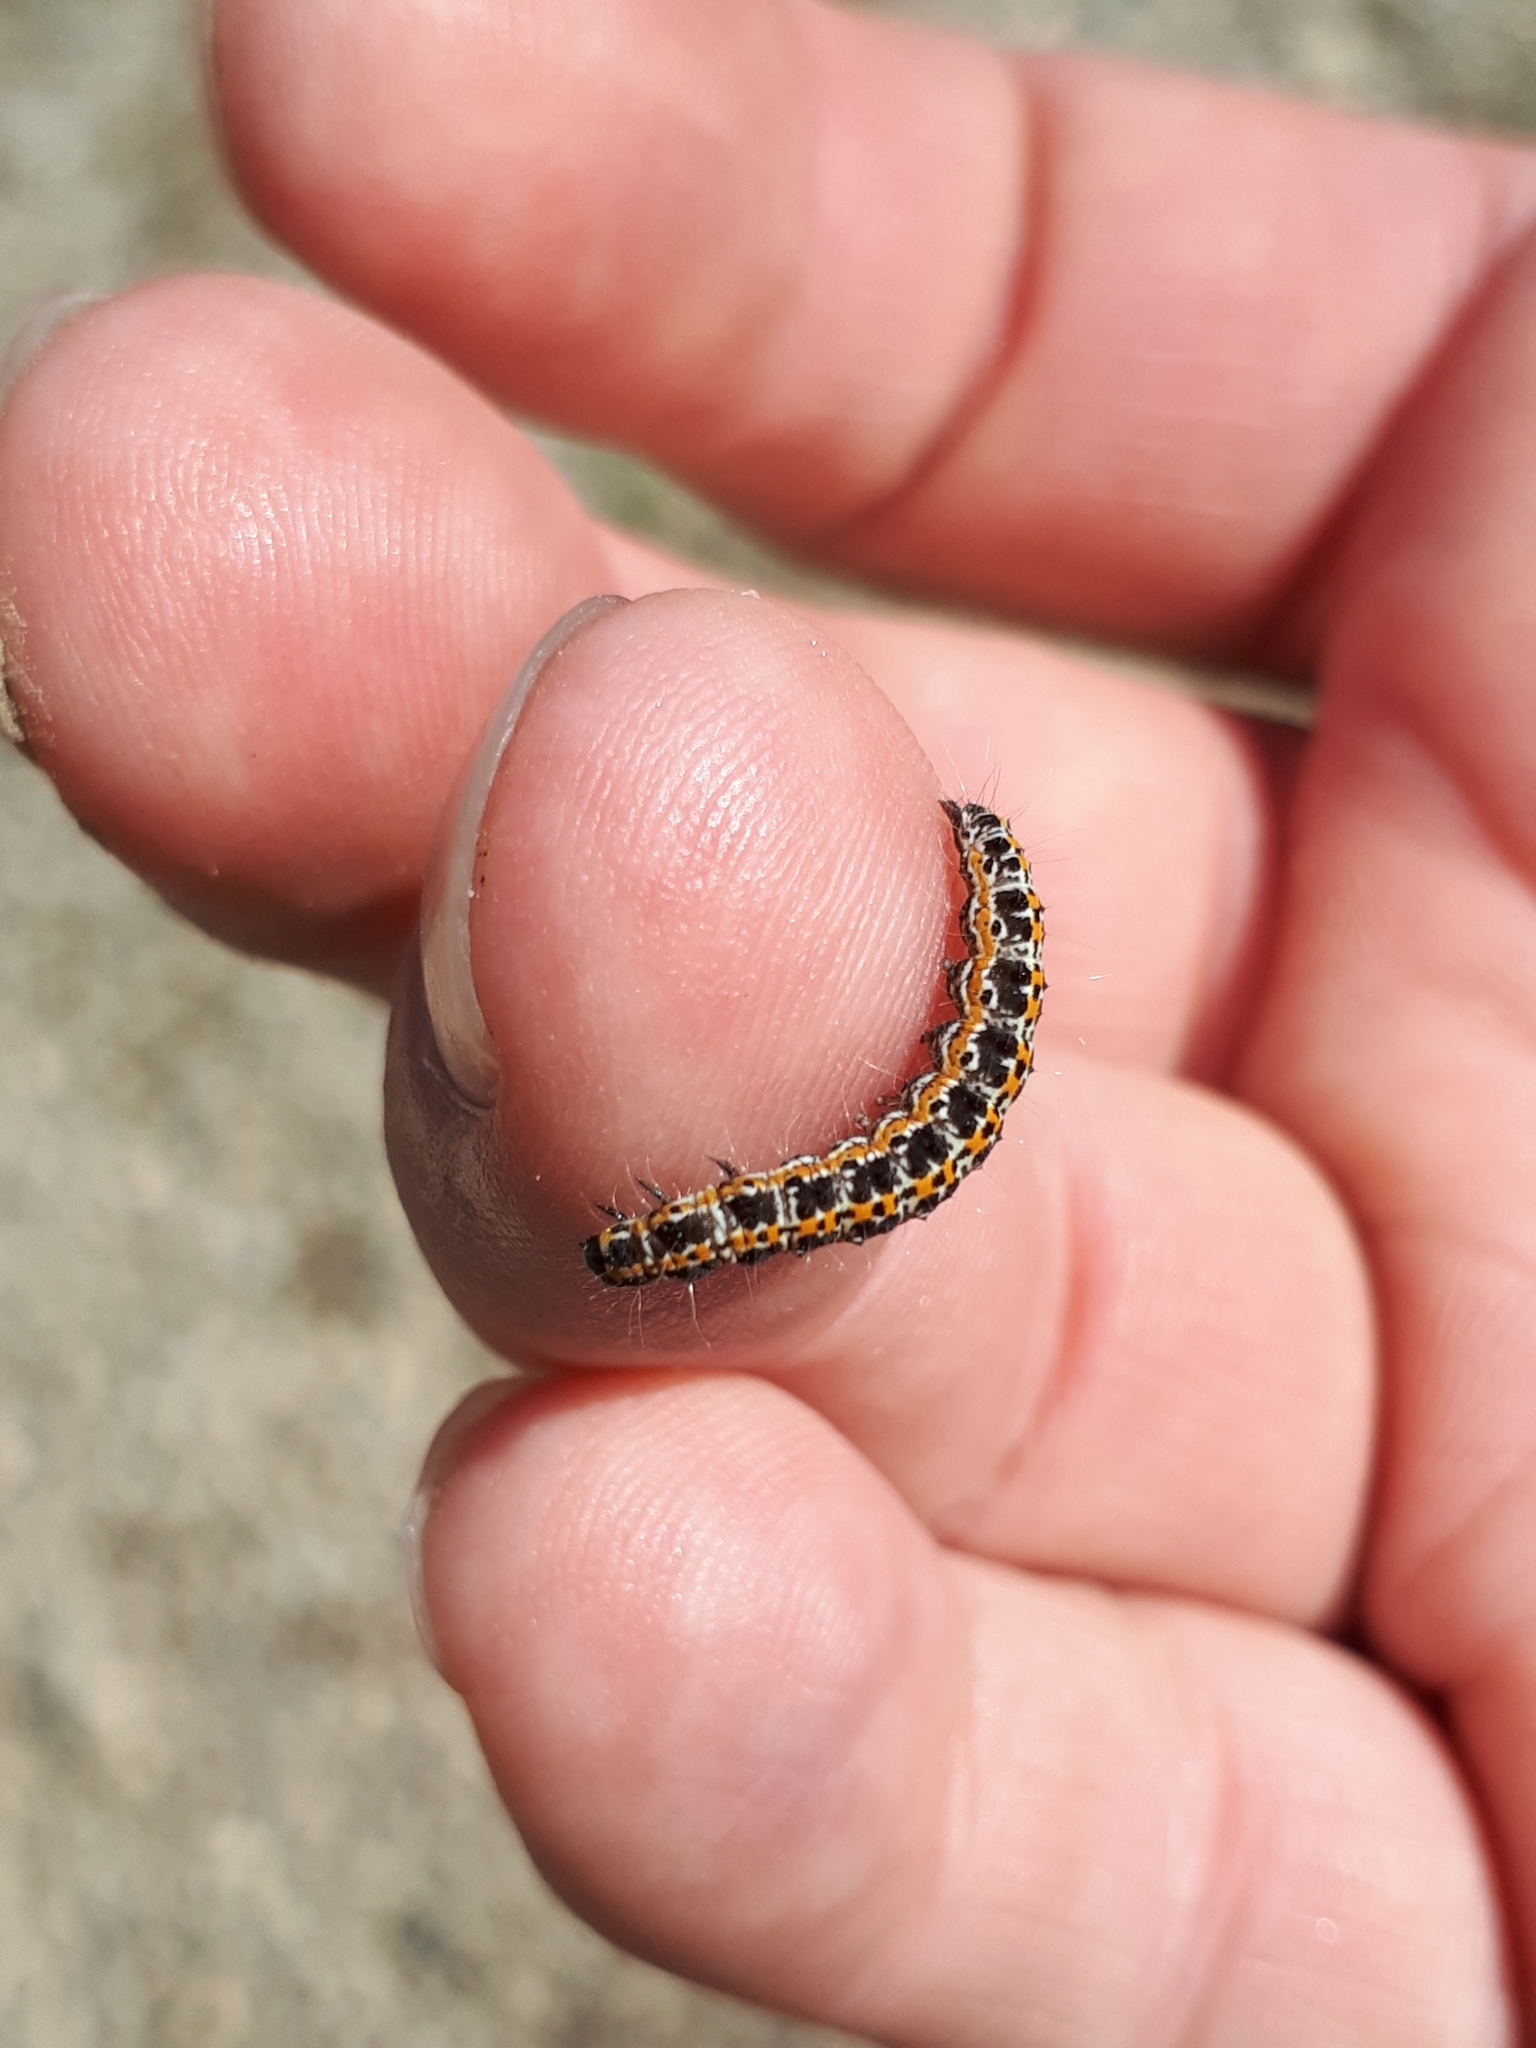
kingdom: Animalia
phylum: Arthropoda
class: Insecta
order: Lepidoptera
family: Ethmiidae
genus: Ethmia
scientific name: Ethmia bipunctella
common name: Bordered ermel
